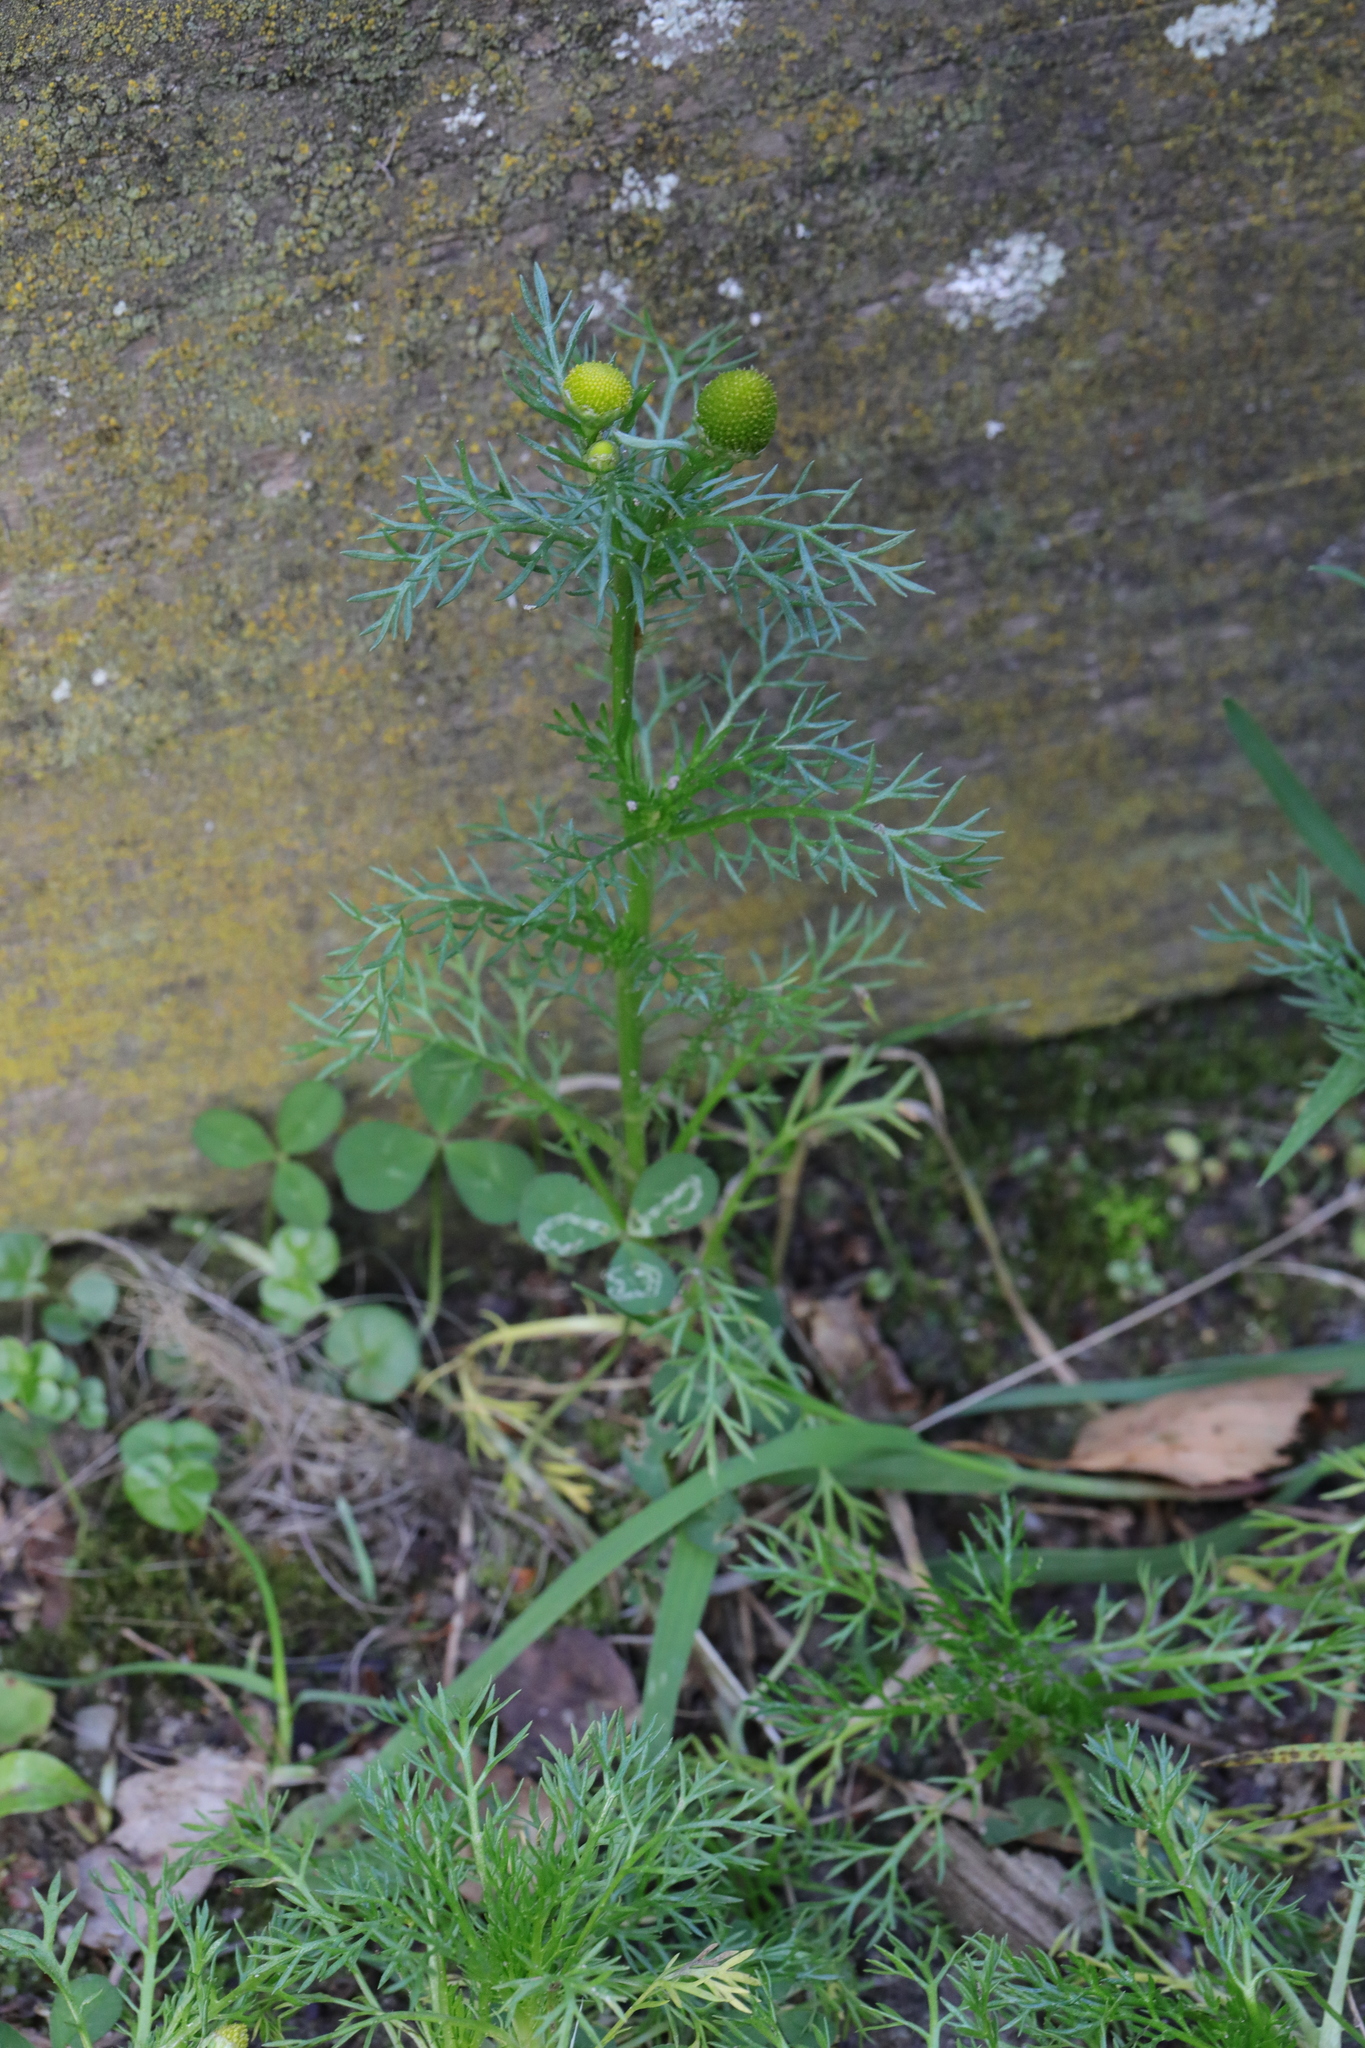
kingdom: Plantae
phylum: Tracheophyta
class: Magnoliopsida
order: Asterales
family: Asteraceae
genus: Matricaria
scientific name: Matricaria discoidea
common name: Disc mayweed
